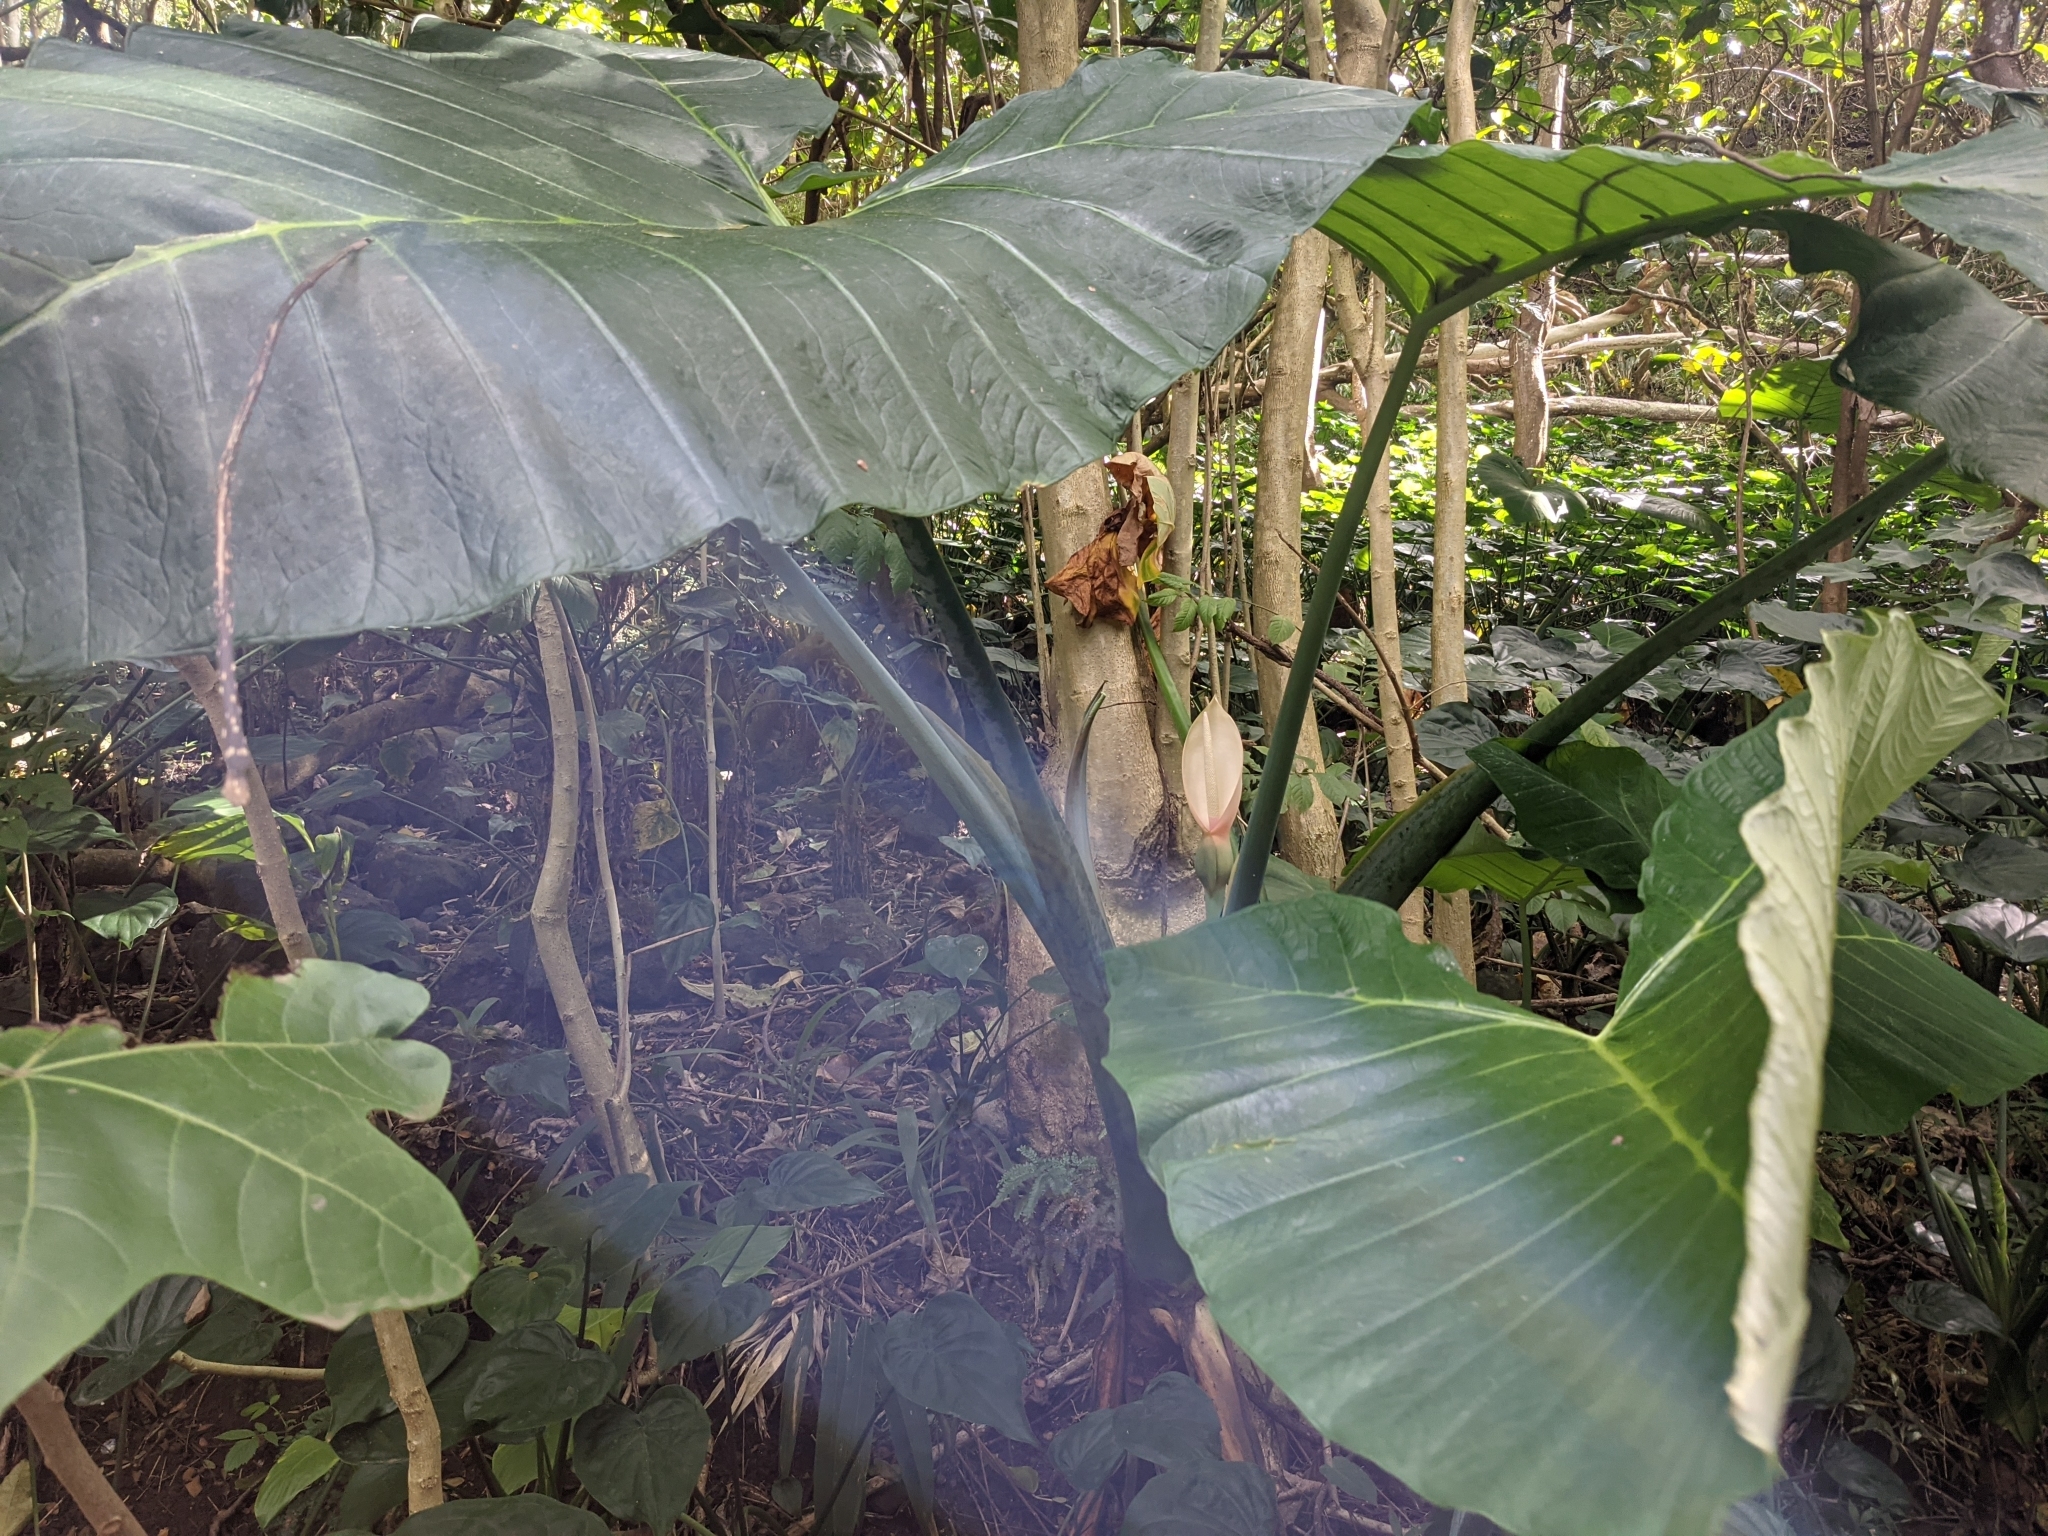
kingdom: Plantae
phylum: Tracheophyta
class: Liliopsida
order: Alismatales
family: Araceae
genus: Xanthosoma
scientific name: Xanthosoma robustum
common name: Capote
